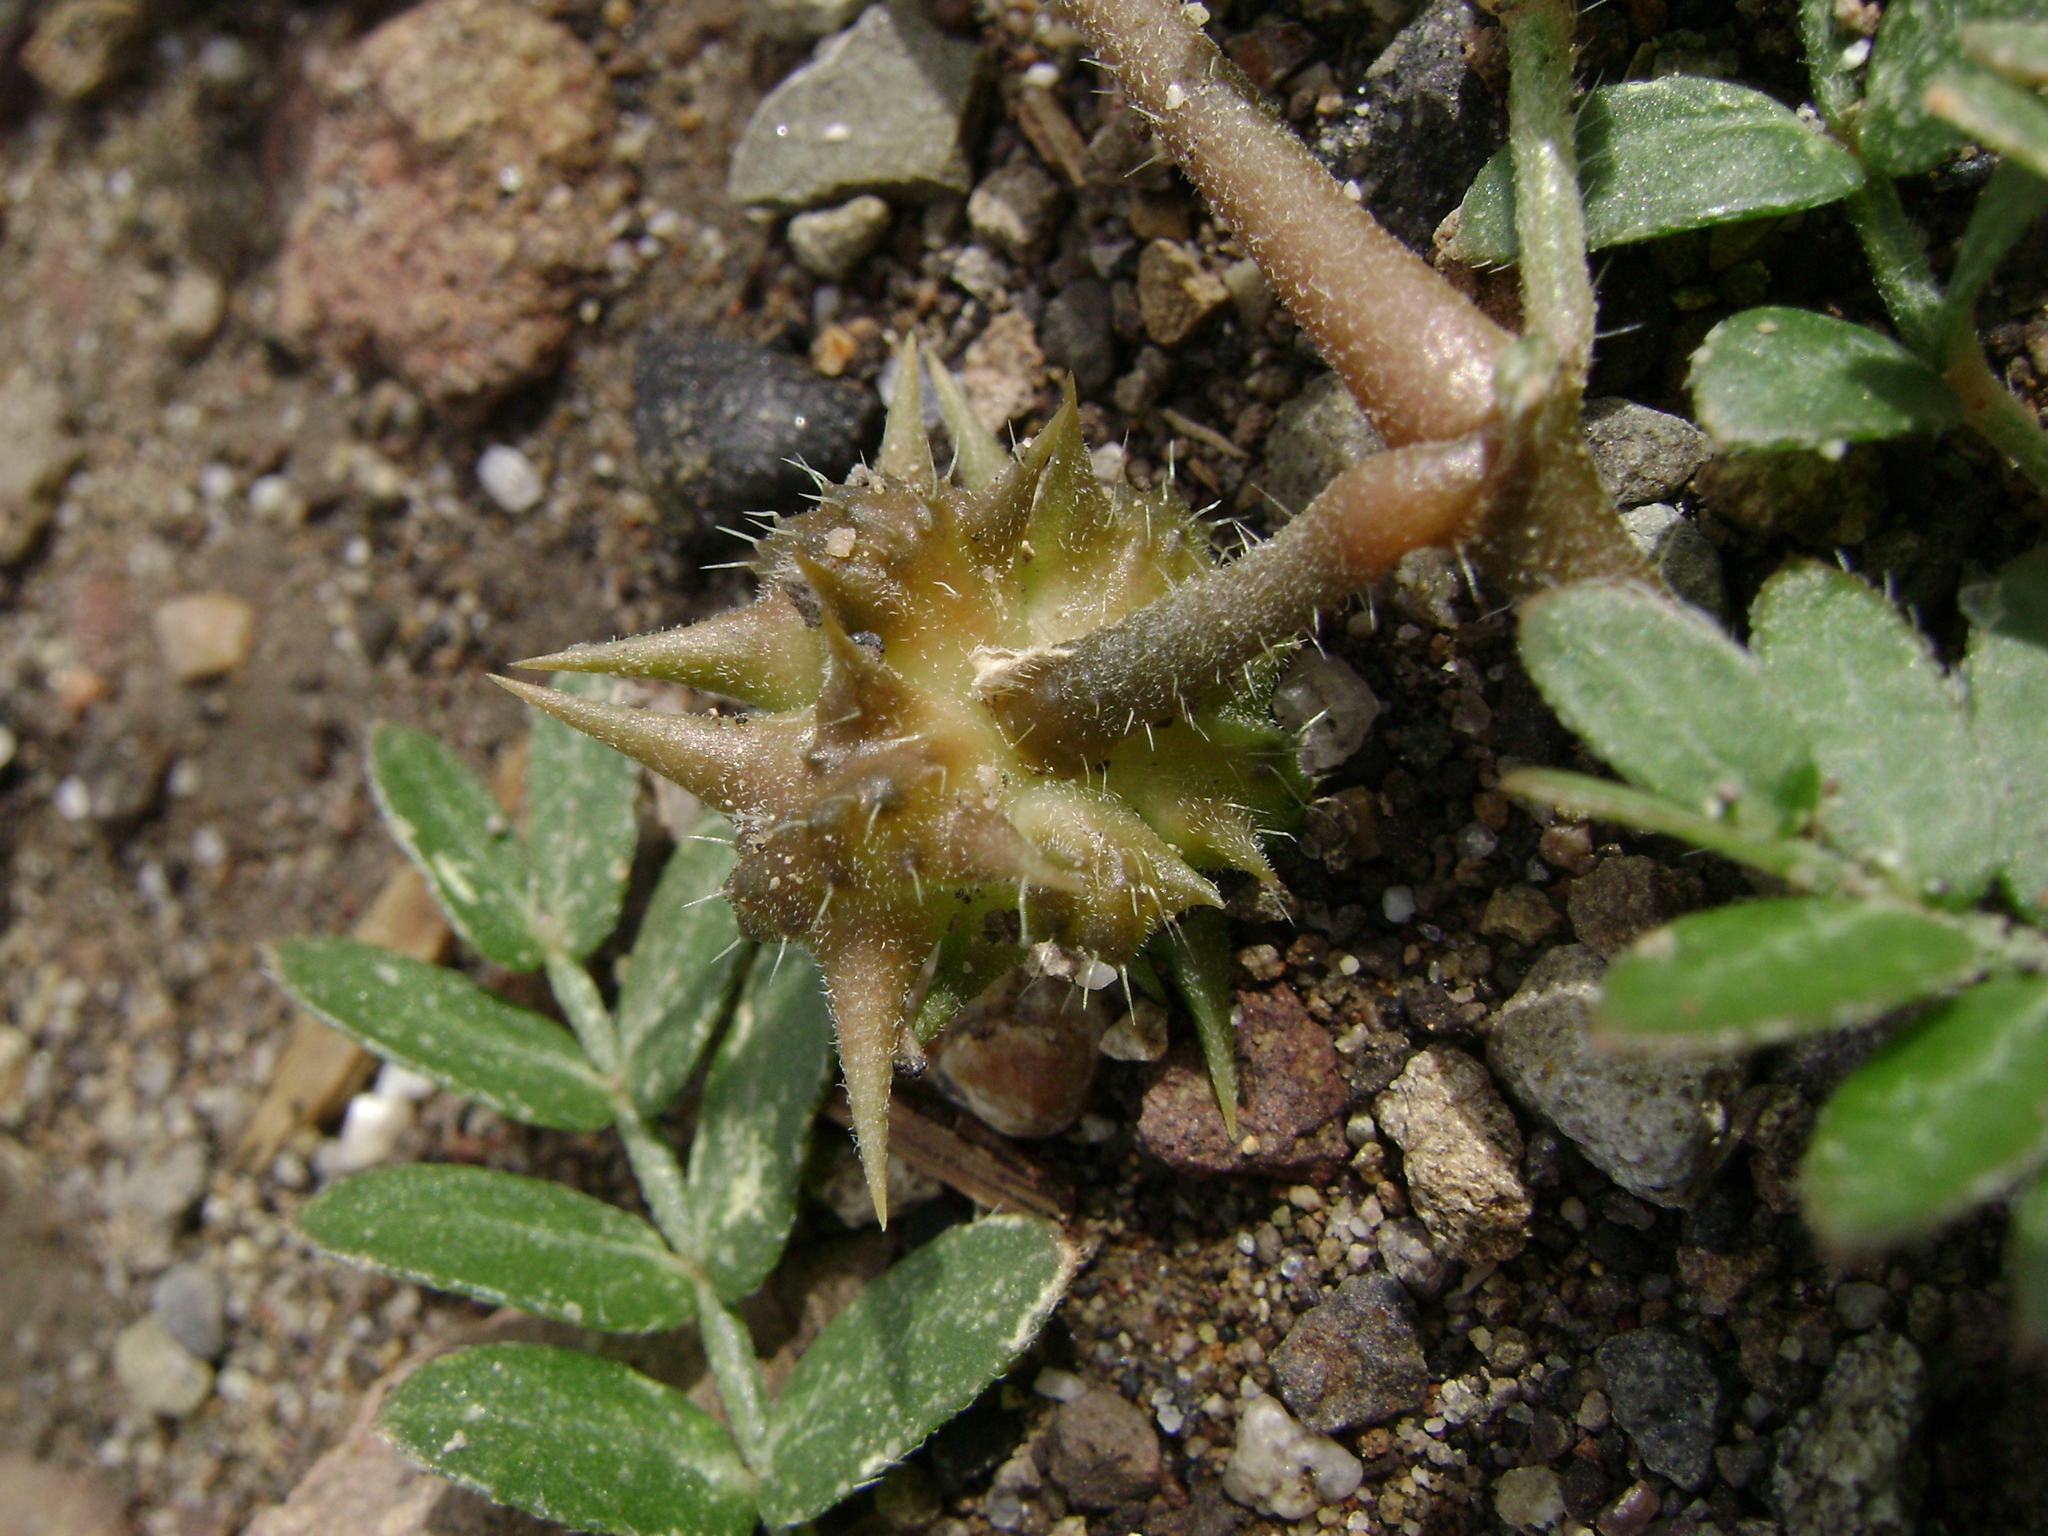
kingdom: Plantae
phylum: Tracheophyta
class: Magnoliopsida
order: Zygophyllales
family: Zygophyllaceae
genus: Tribulus
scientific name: Tribulus terrestris
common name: Puncturevine
